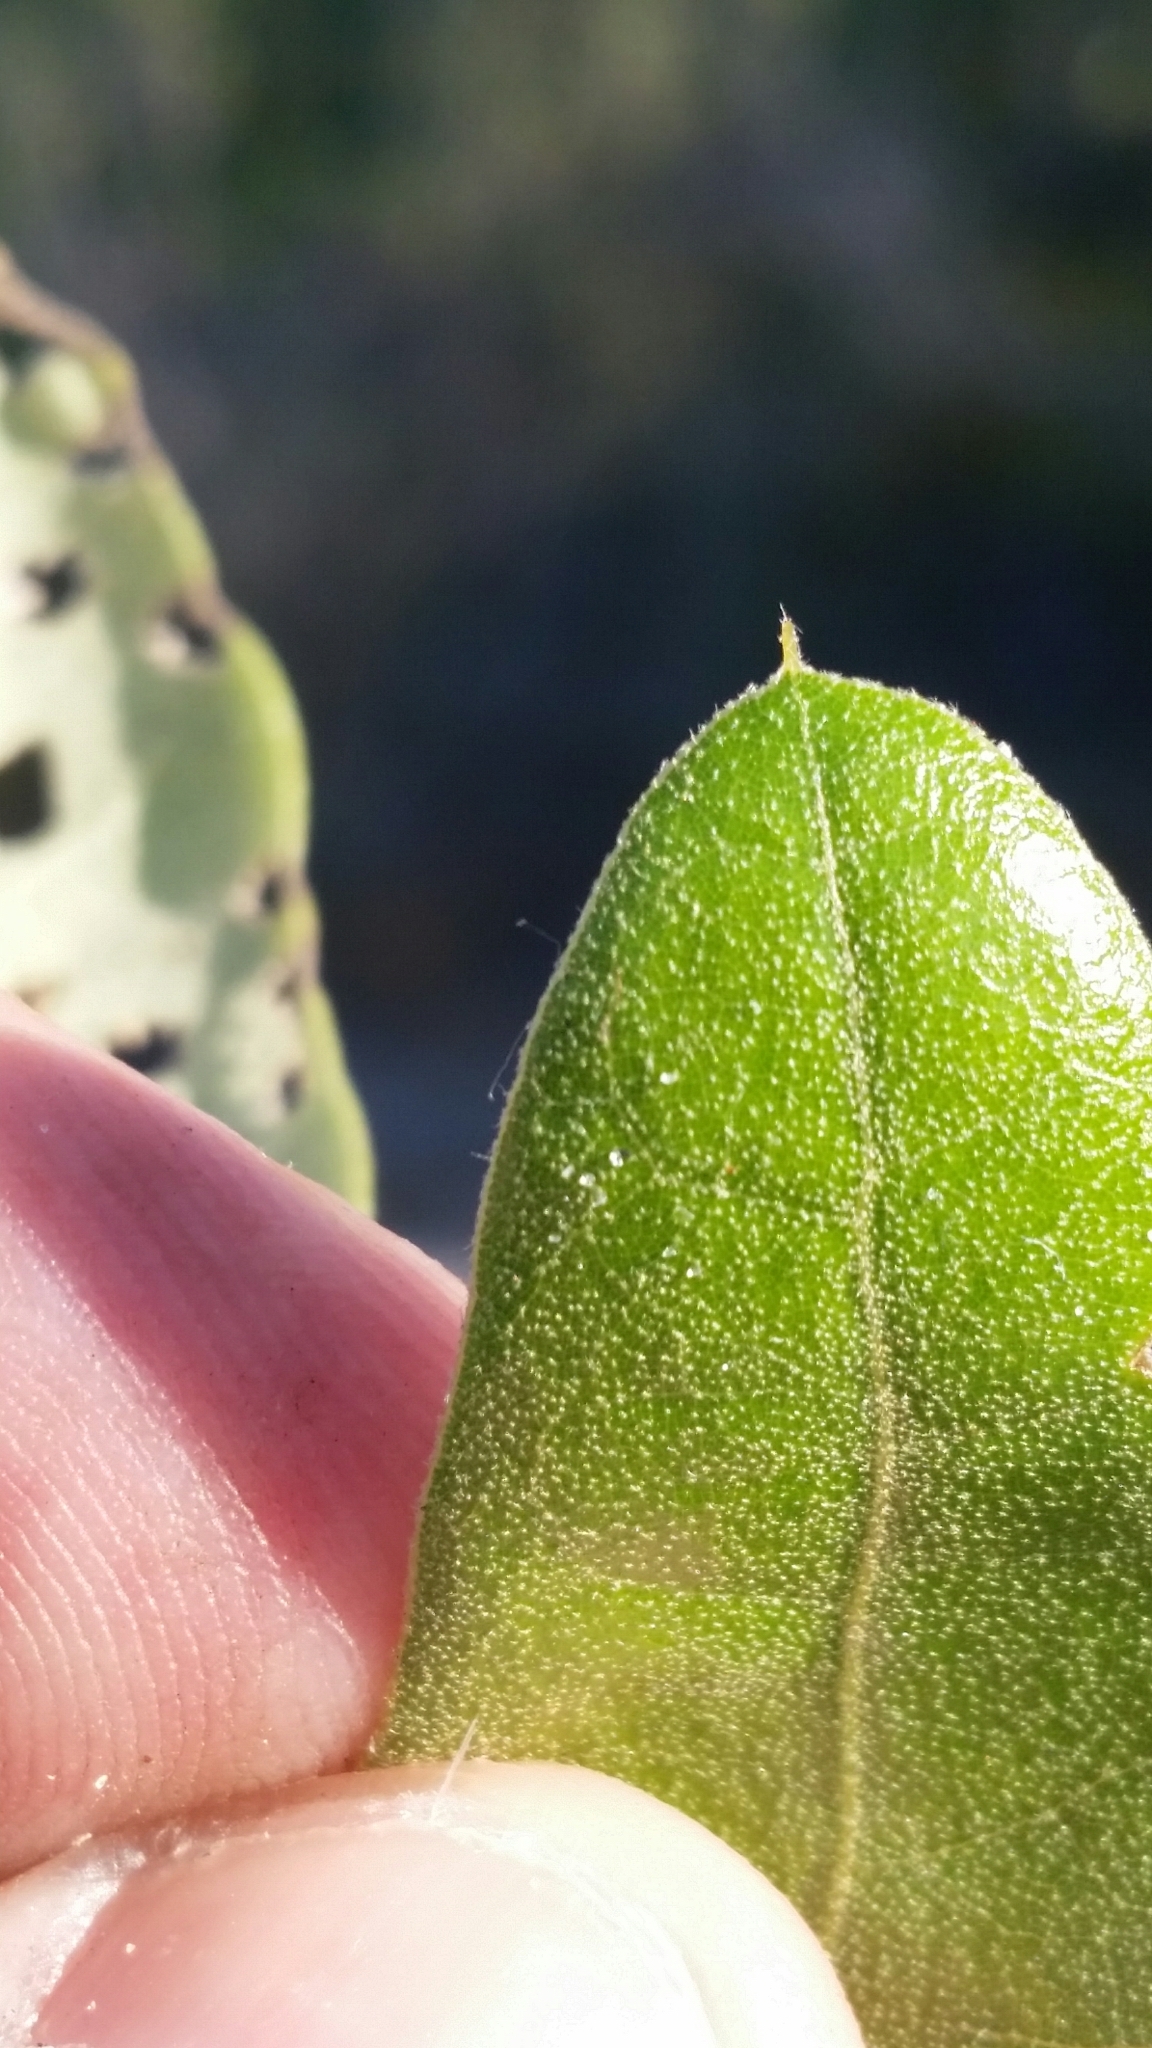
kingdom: Plantae
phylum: Tracheophyta
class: Magnoliopsida
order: Fagales
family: Fagaceae
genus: Quercus
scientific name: Quercus incana
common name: Bluejack oak
